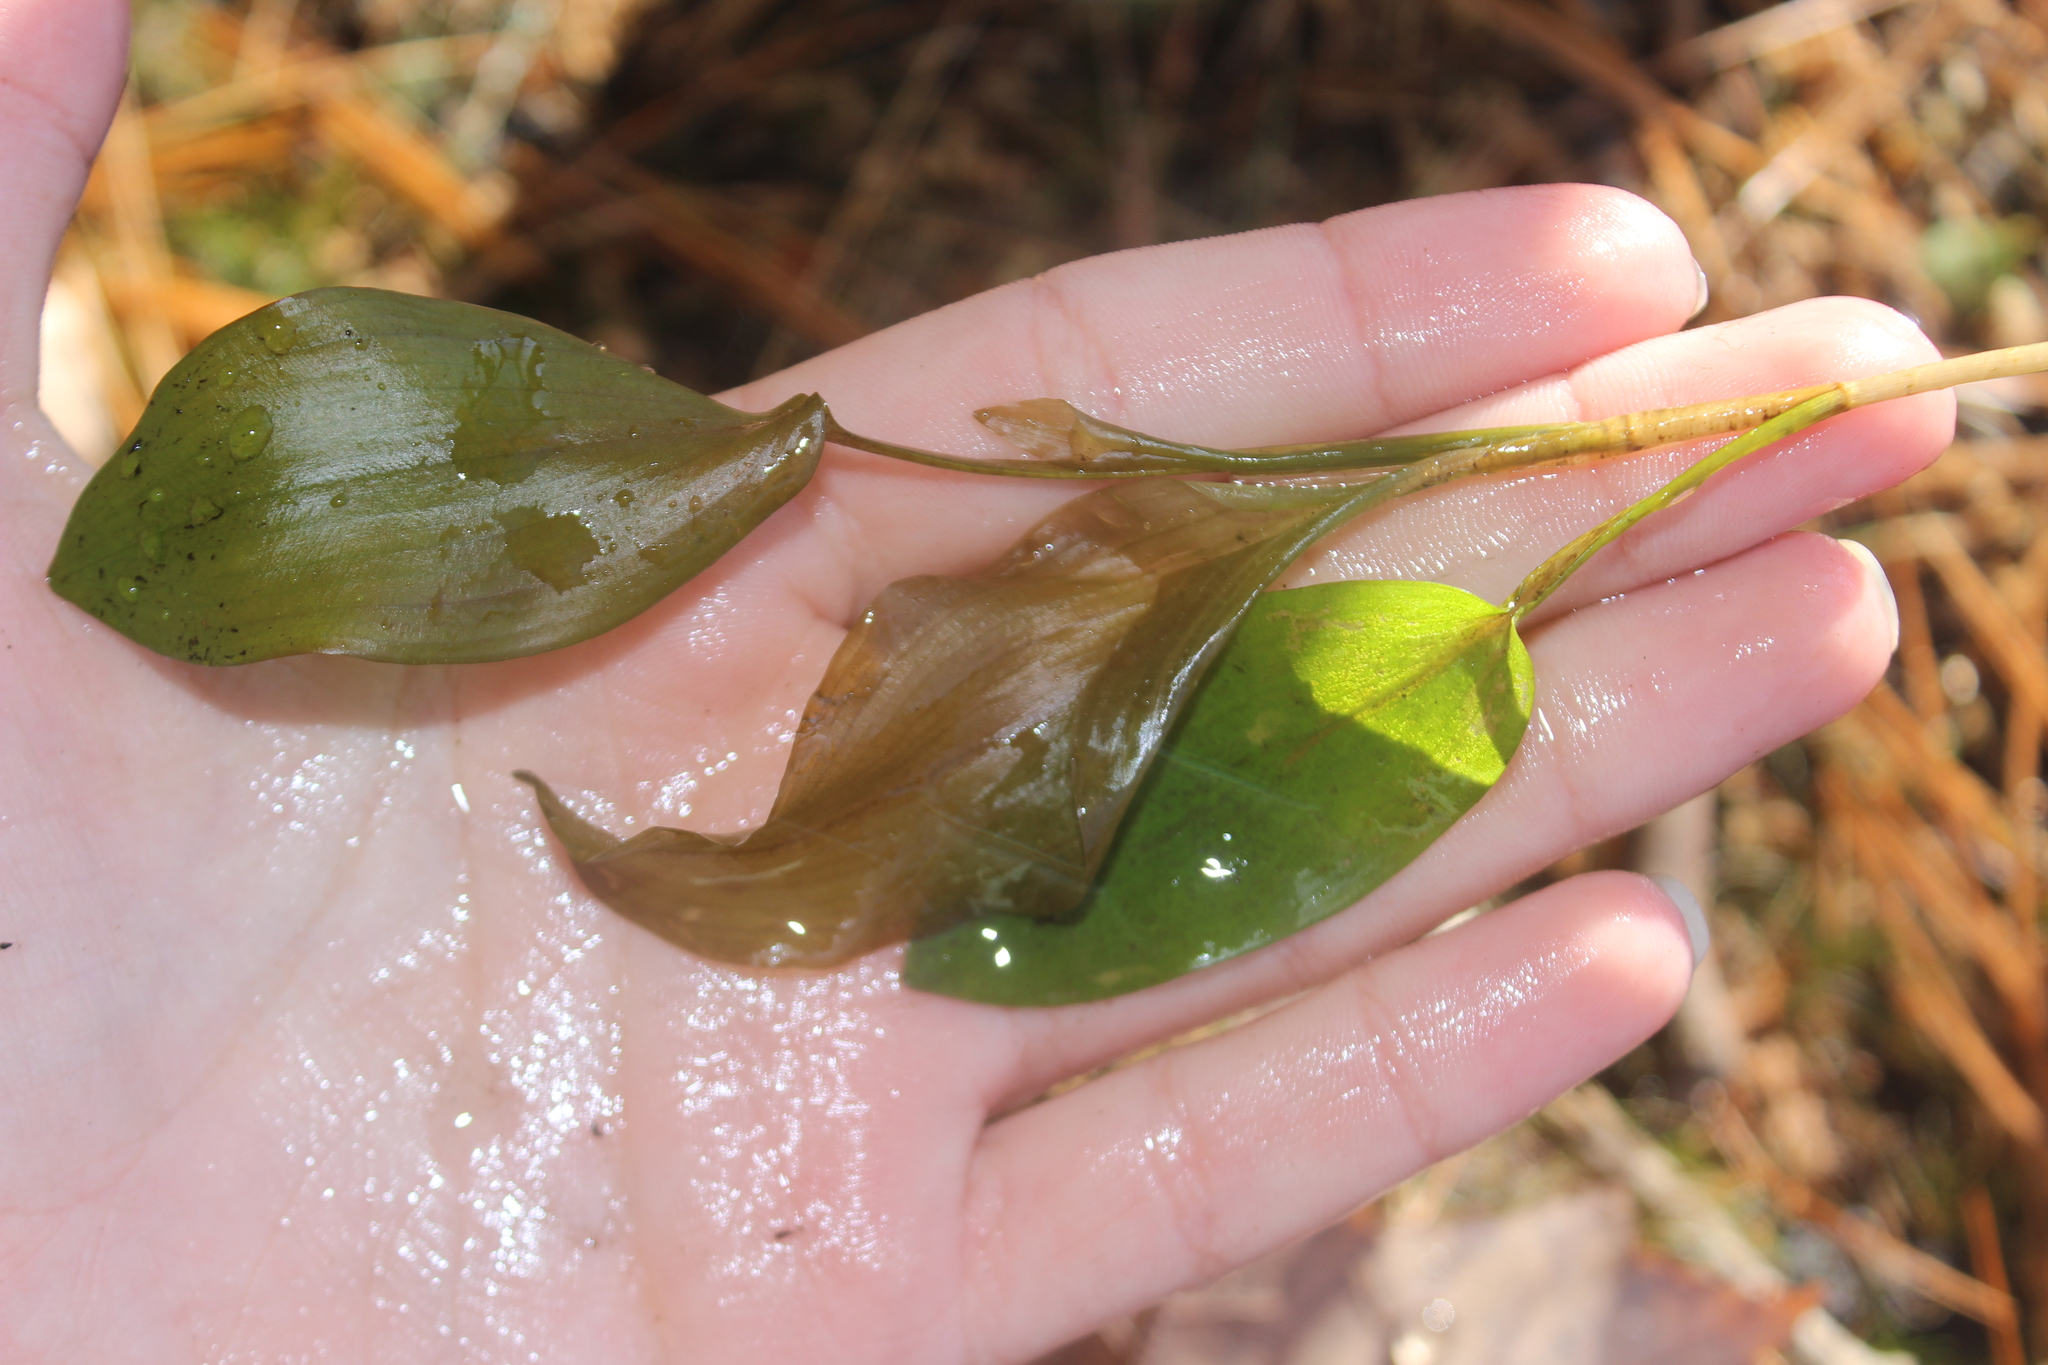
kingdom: Plantae
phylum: Tracheophyta
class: Liliopsida
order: Alismatales
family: Potamogetonaceae
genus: Potamogeton
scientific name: Potamogeton amplifolius
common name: Broad-leaved pondweed
